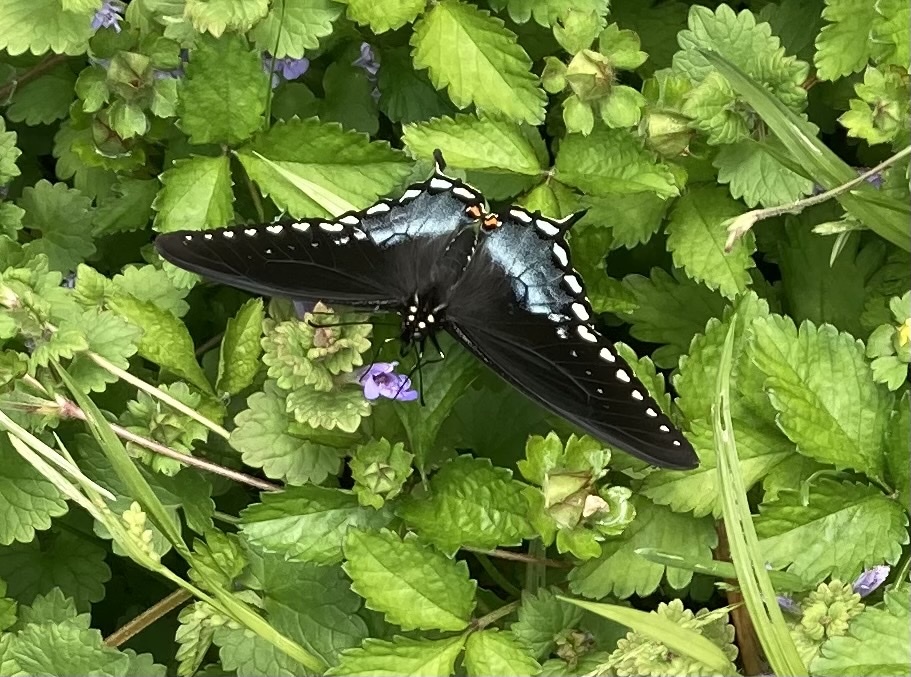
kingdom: Animalia
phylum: Arthropoda
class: Insecta
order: Lepidoptera
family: Papilionidae
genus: Papilio
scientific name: Papilio troilus
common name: Spicebush swallowtail
